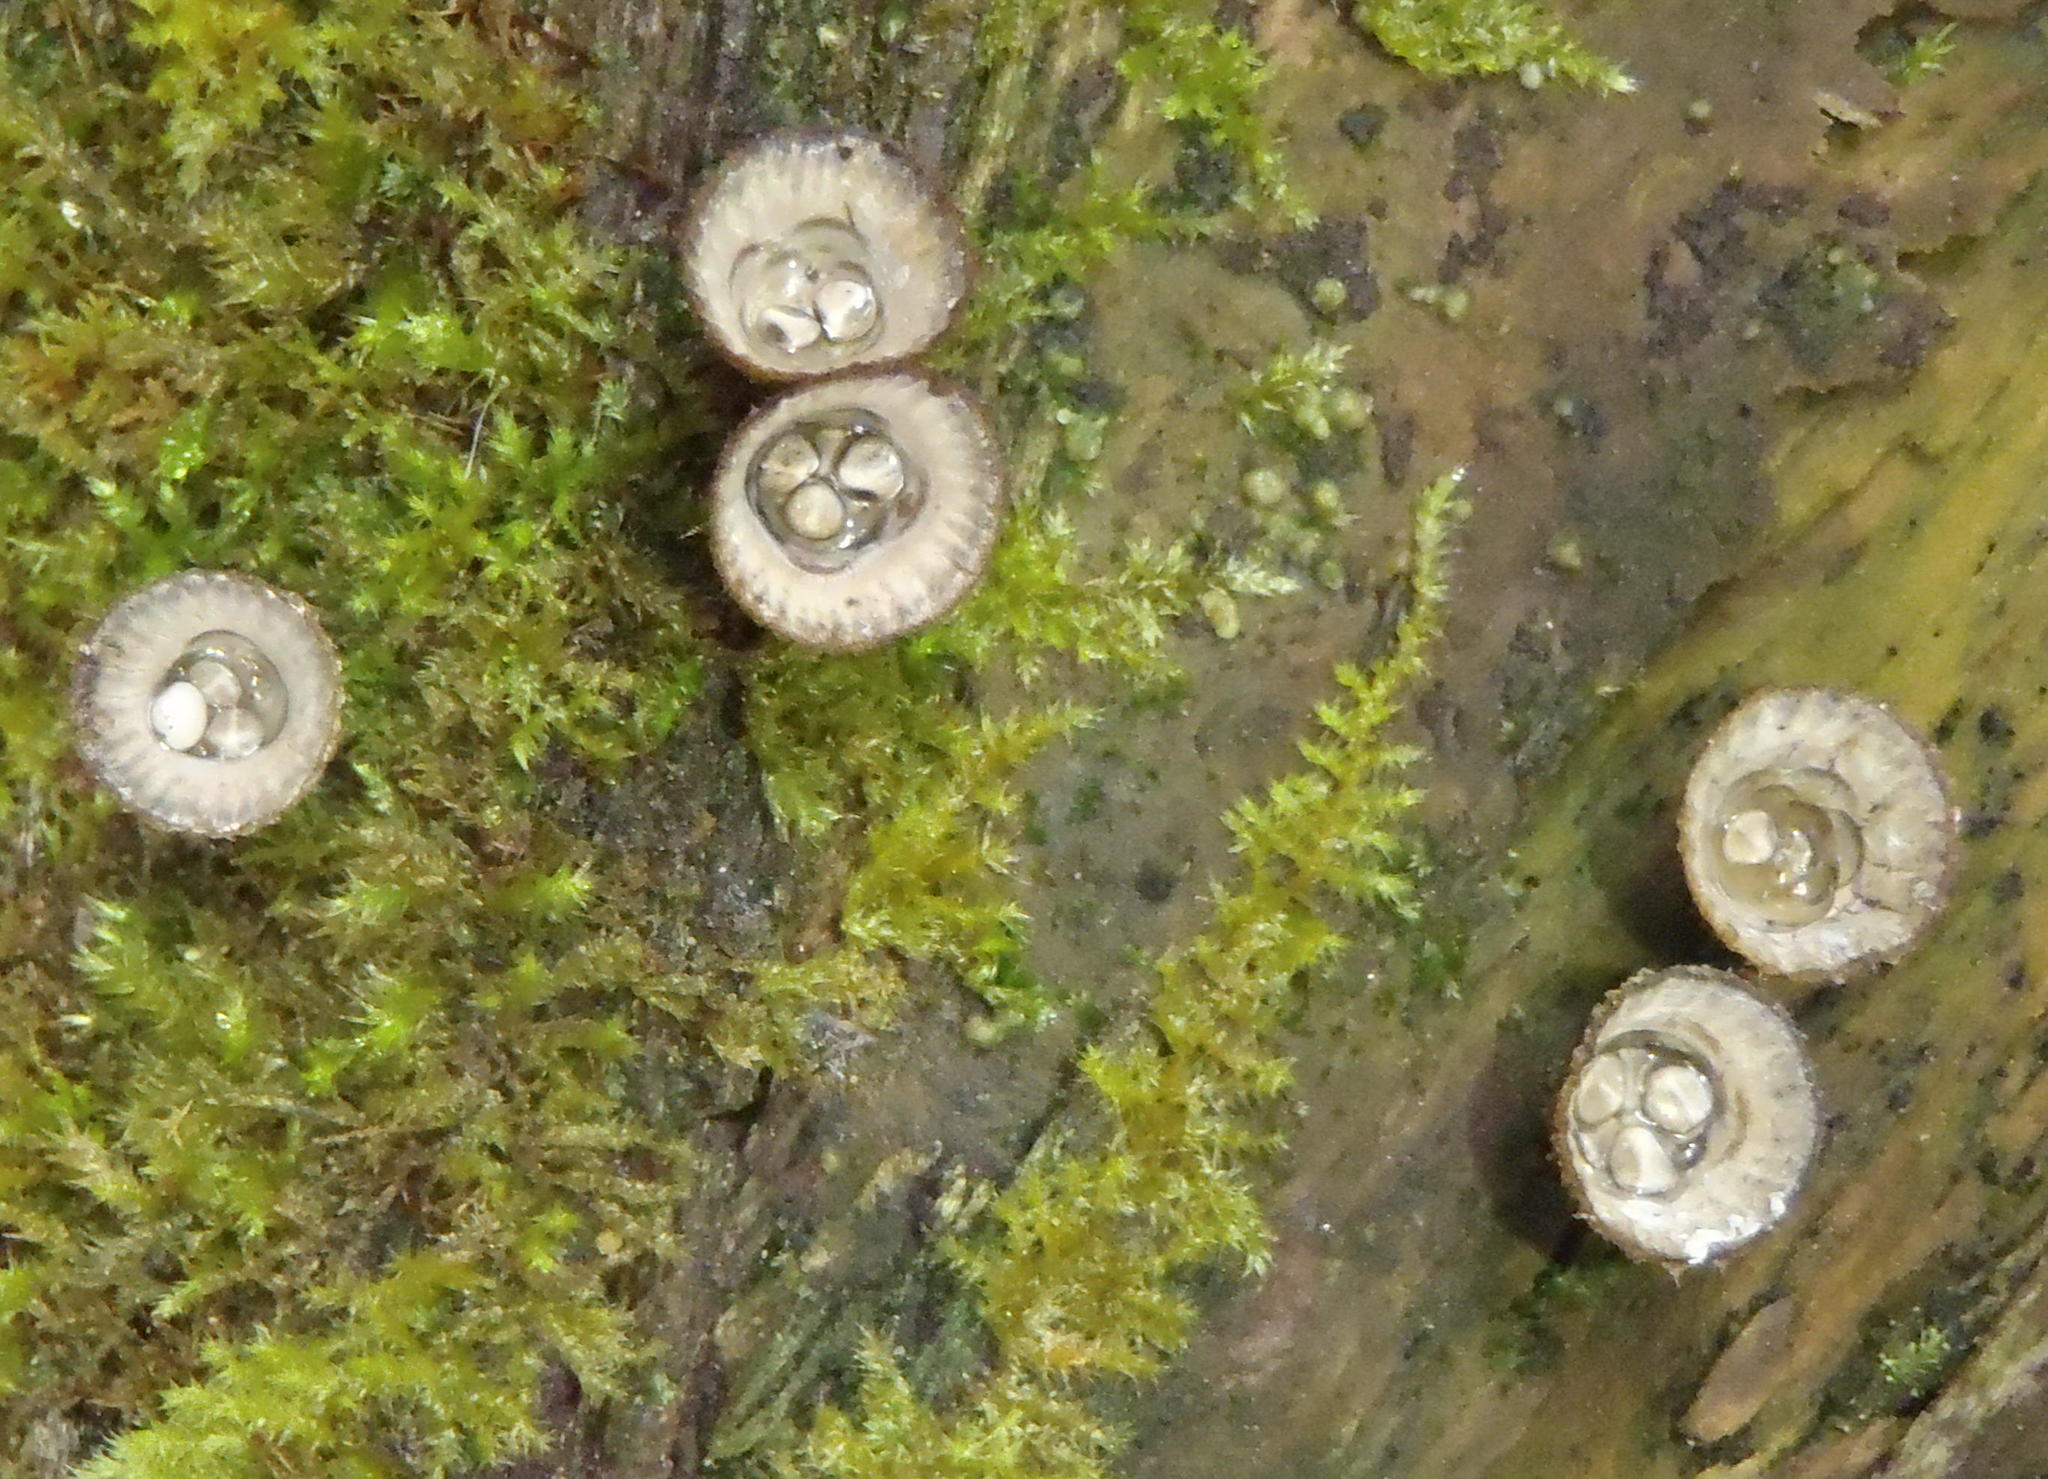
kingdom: Fungi
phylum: Basidiomycota
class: Agaricomycetes
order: Agaricales
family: Agaricaceae
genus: Cyathus
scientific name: Cyathus striatus
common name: Fluted bird's nest
